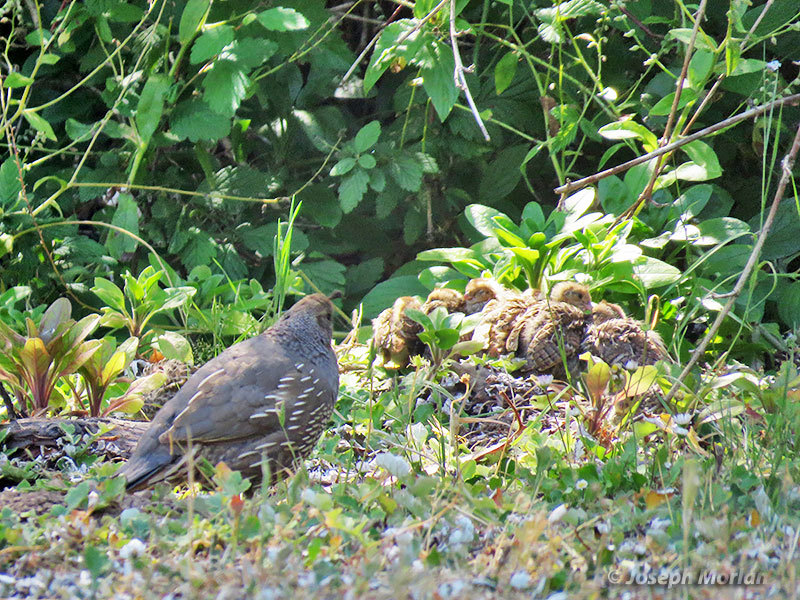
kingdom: Animalia
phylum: Chordata
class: Aves
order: Galliformes
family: Odontophoridae
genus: Callipepla
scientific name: Callipepla californica
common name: California quail
